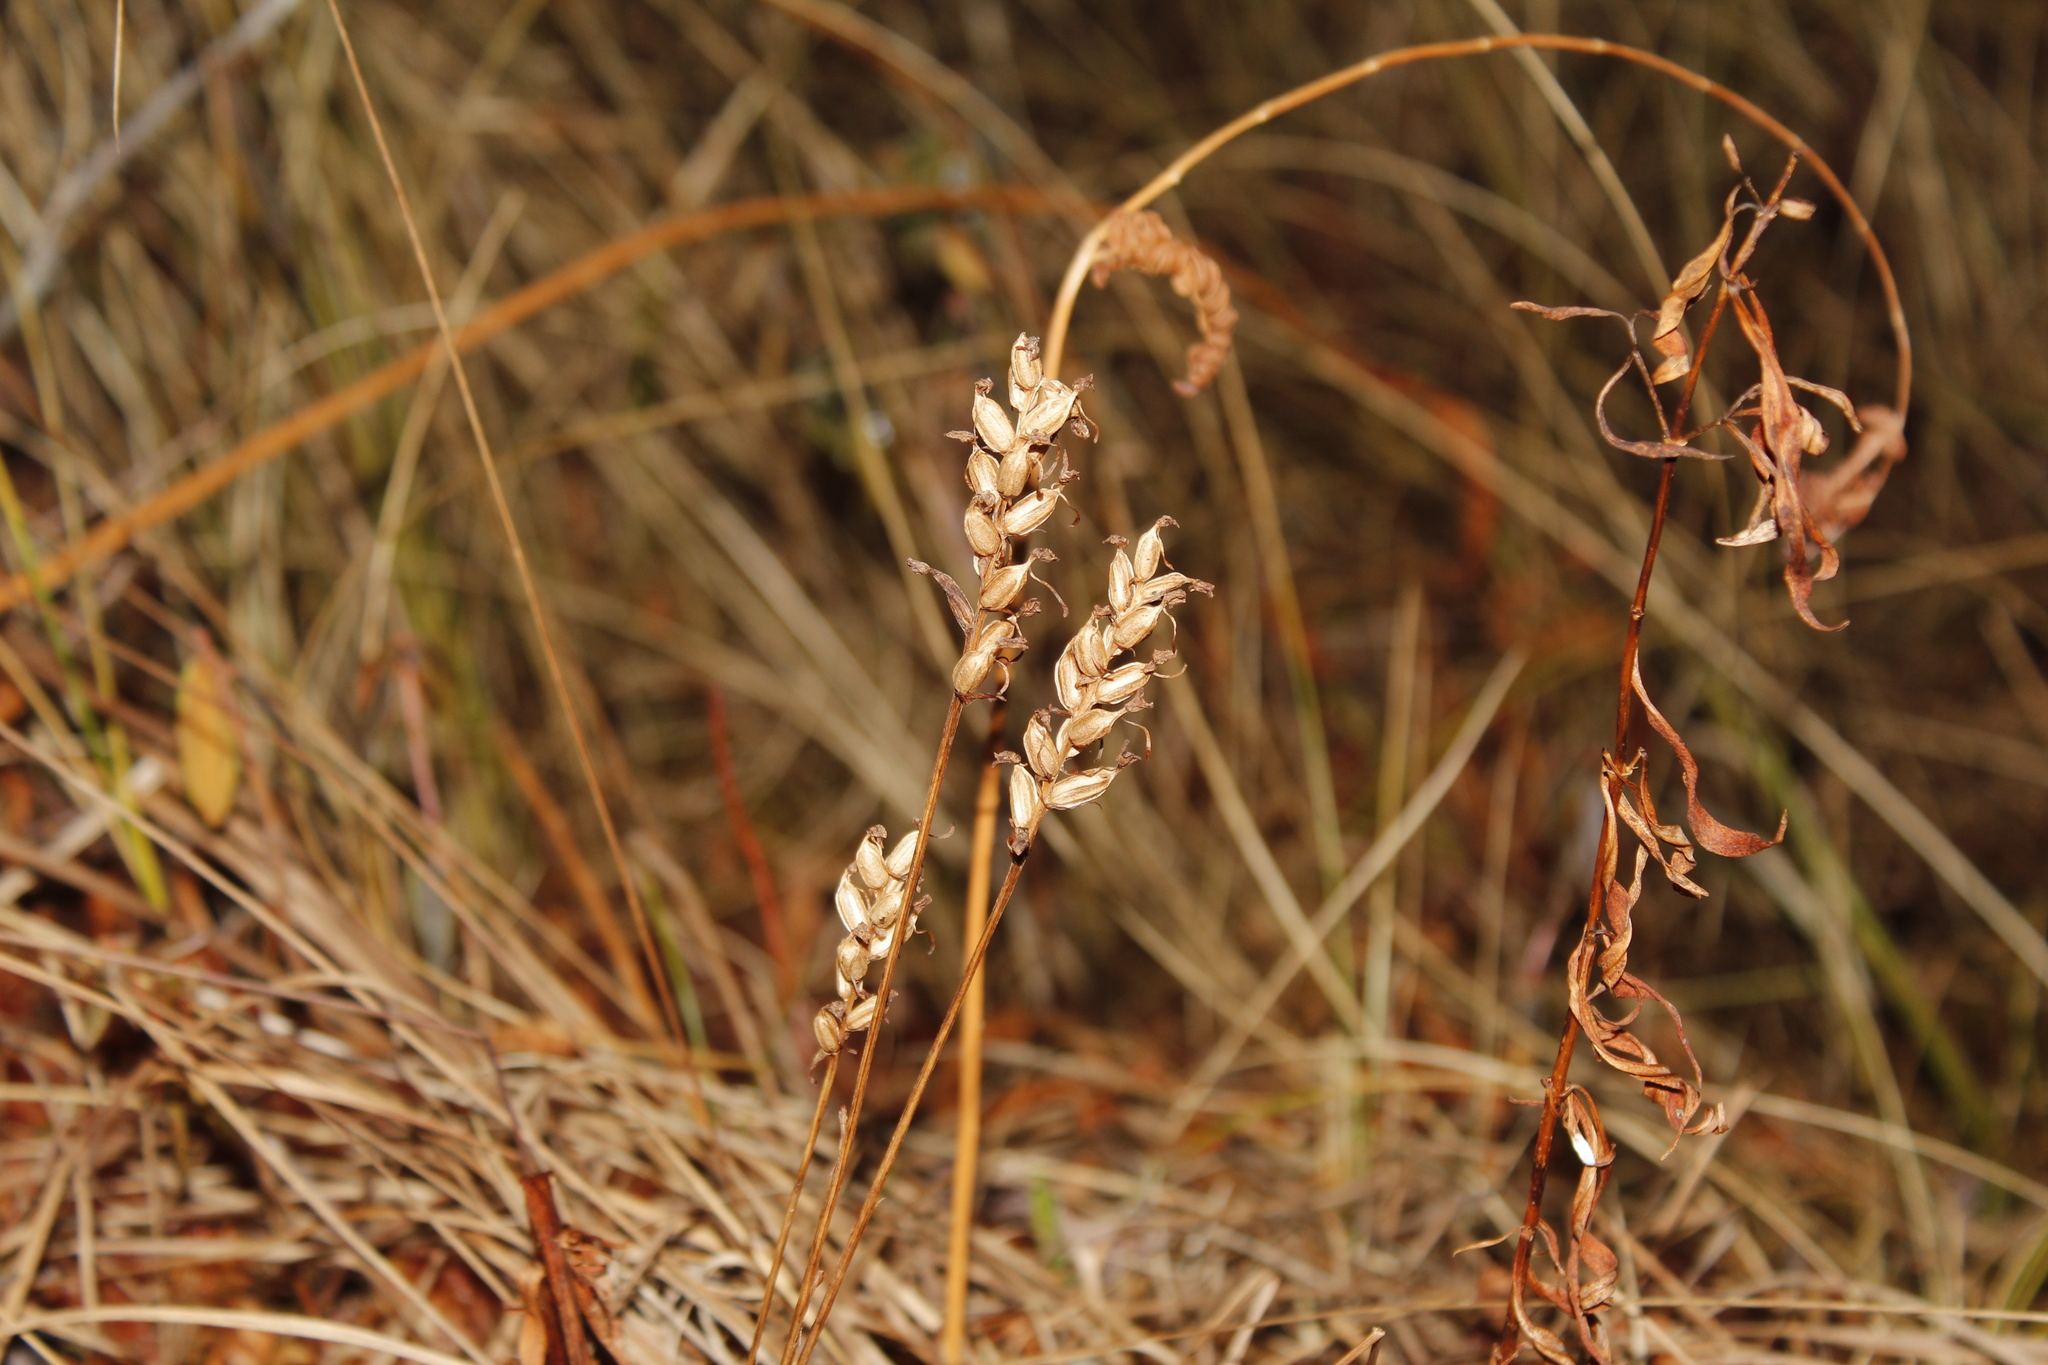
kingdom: Plantae
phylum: Tracheophyta
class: Liliopsida
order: Asparagales
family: Orchidaceae
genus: Platanthera
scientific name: Platanthera clavellata
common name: Club-spur orchid
